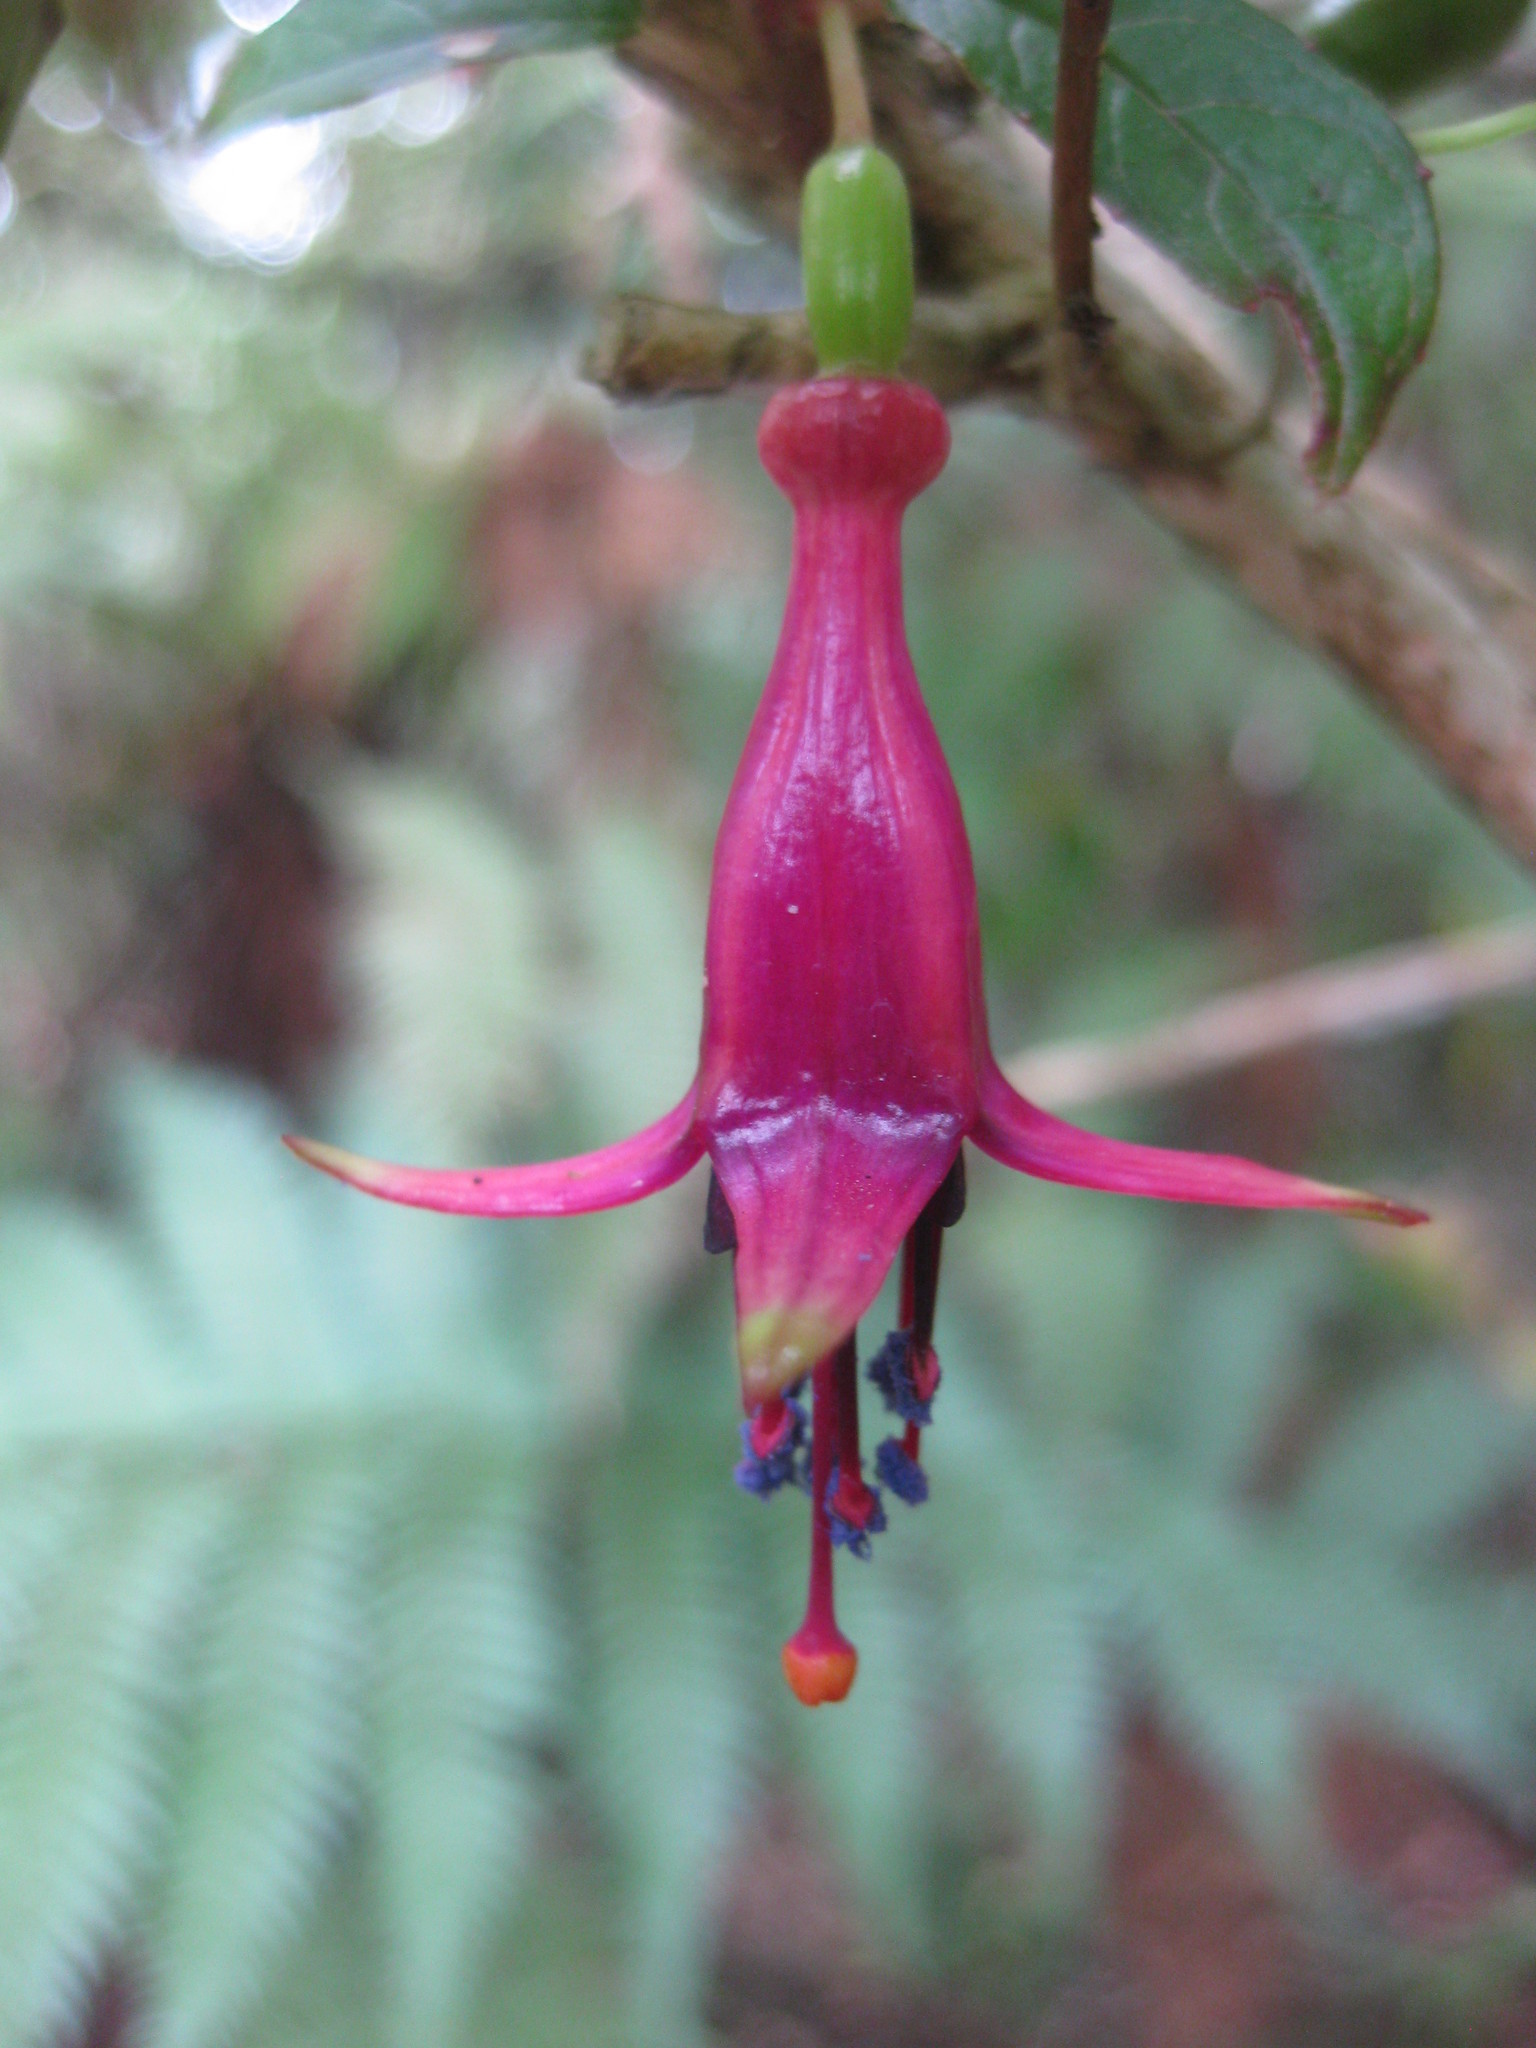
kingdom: Plantae
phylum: Tracheophyta
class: Magnoliopsida
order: Myrtales
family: Onagraceae
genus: Fuchsia
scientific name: Fuchsia excorticata
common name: Tree fuchsia
